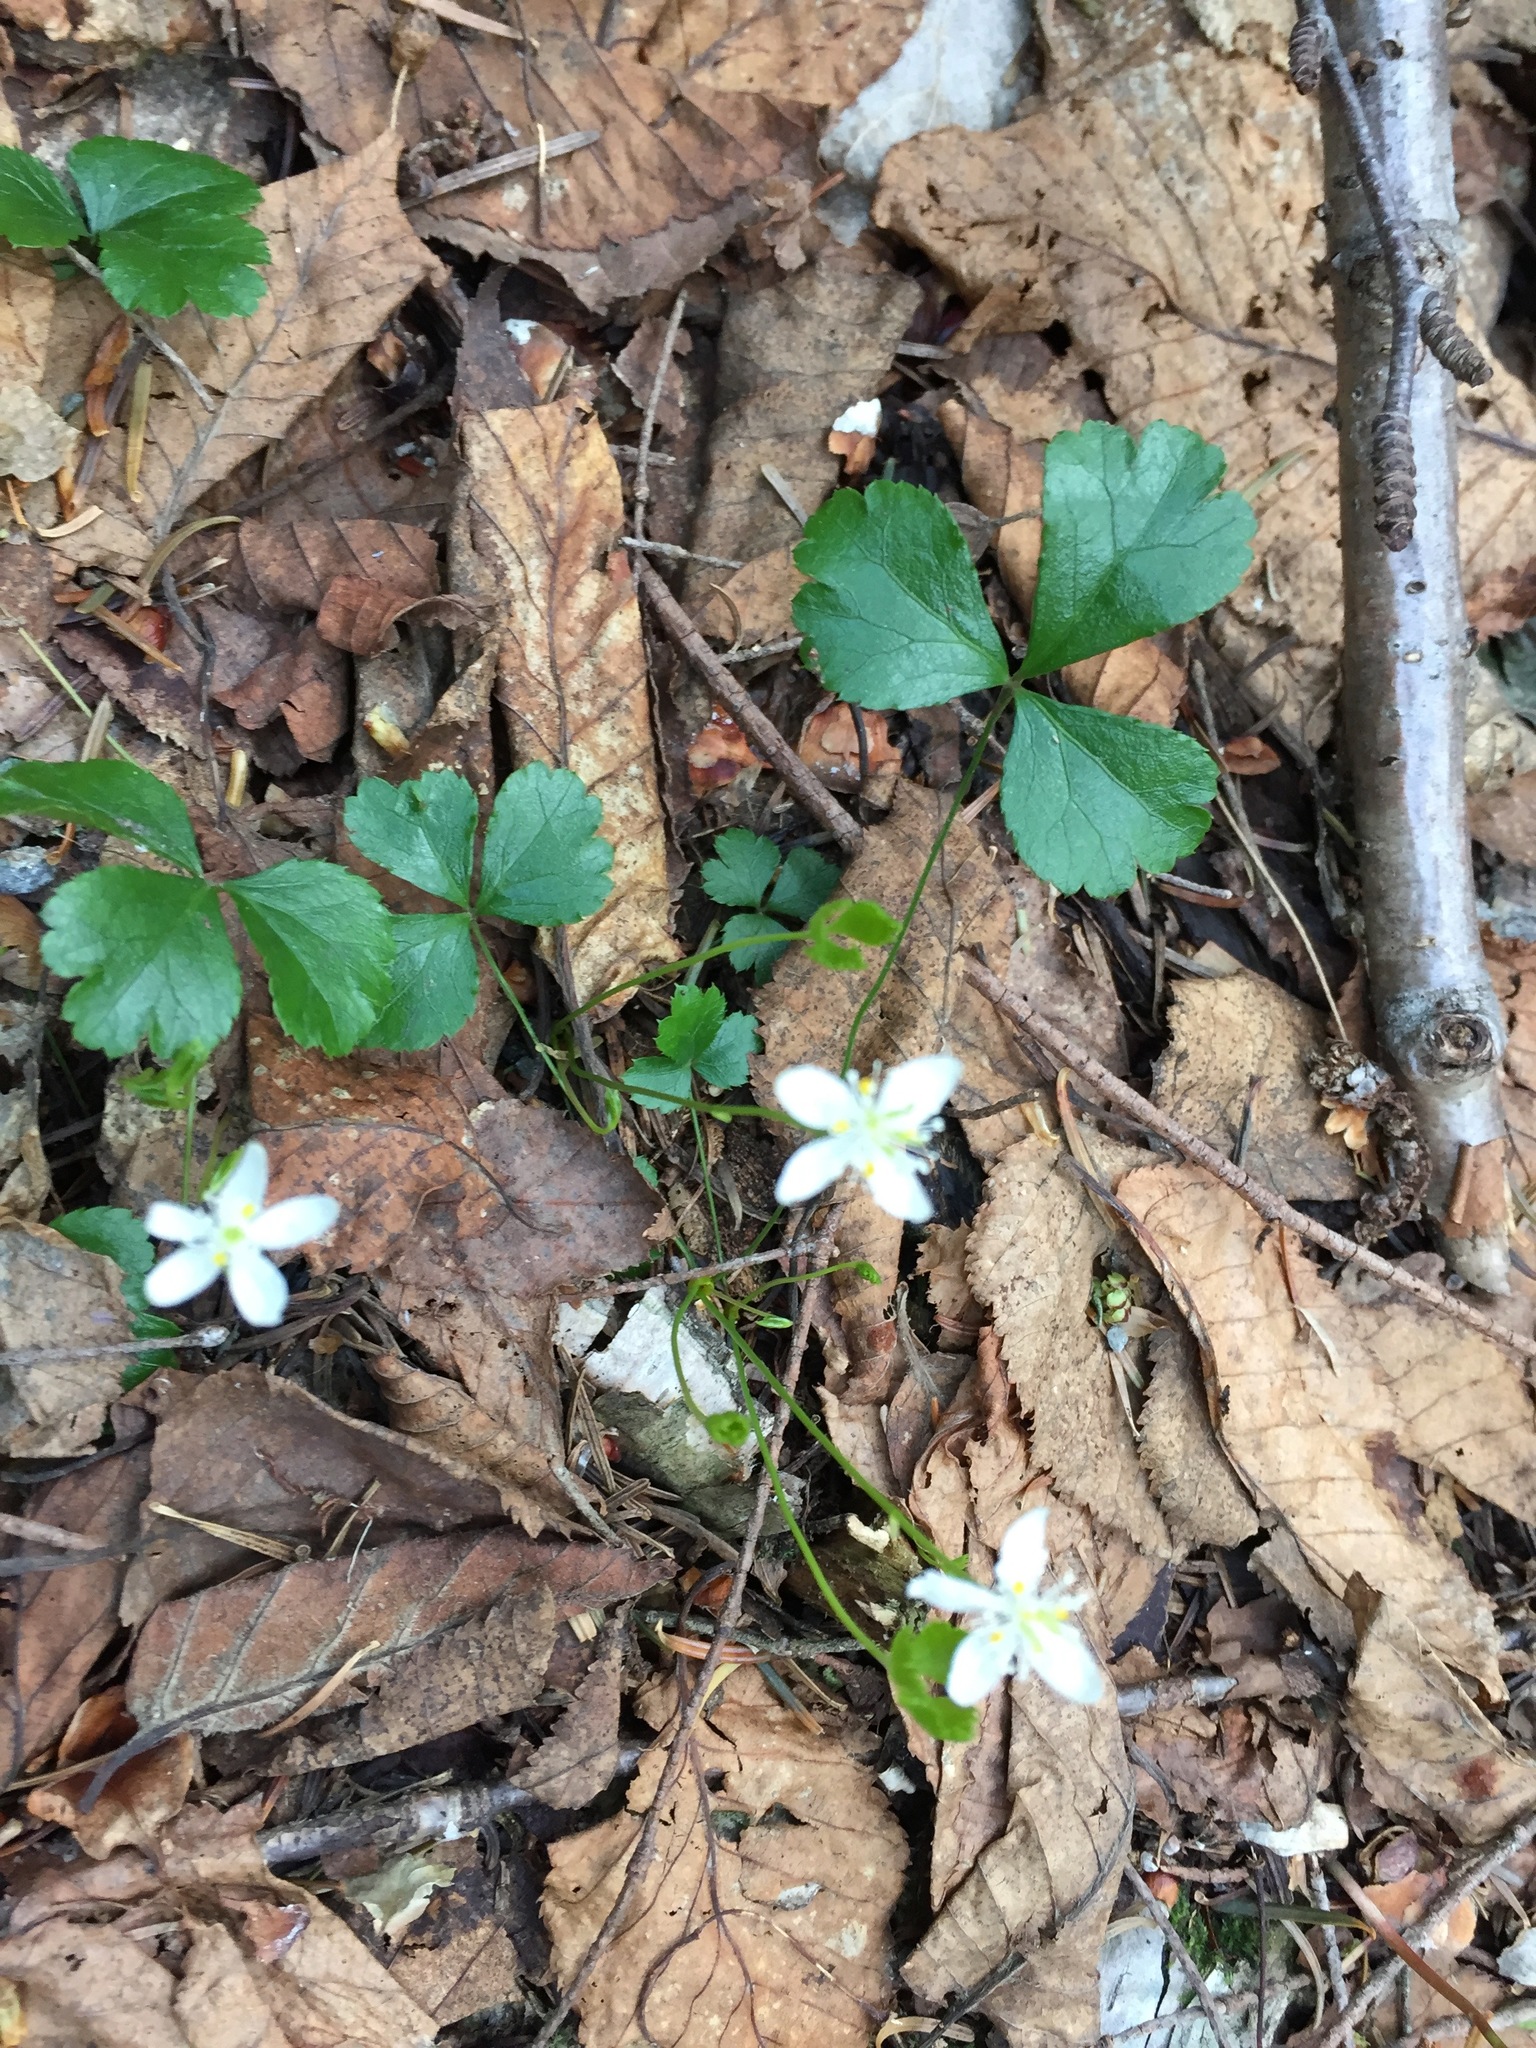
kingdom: Plantae
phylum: Tracheophyta
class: Magnoliopsida
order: Ranunculales
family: Ranunculaceae
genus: Coptis
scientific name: Coptis trifolia
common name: Canker-root
